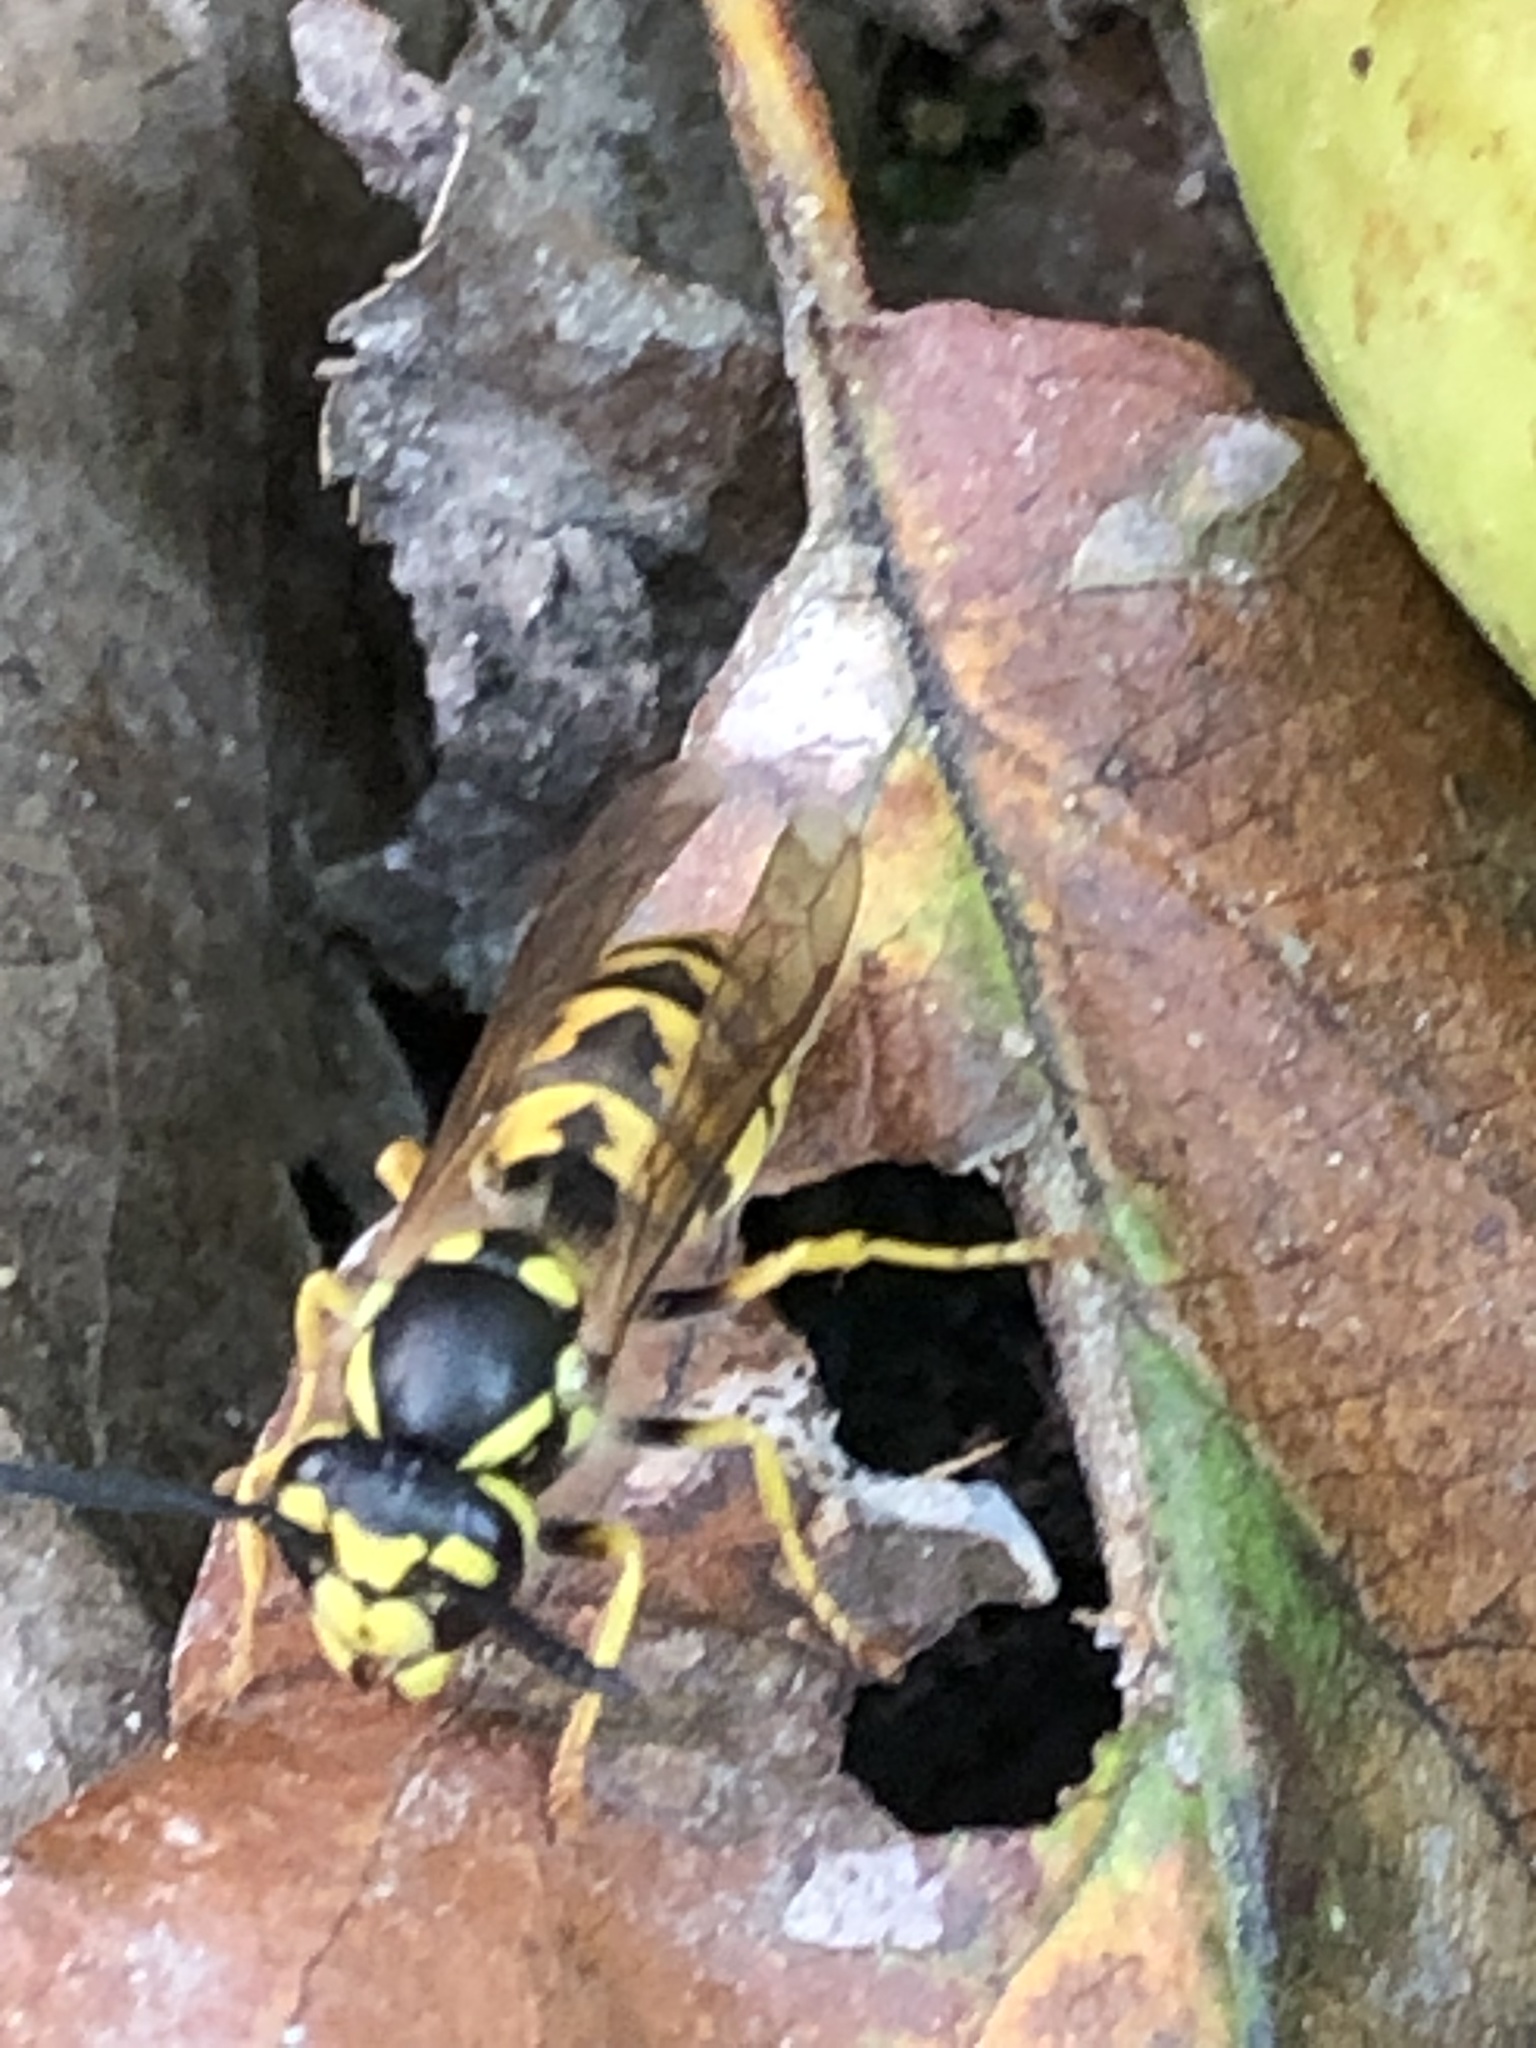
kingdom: Animalia
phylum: Arthropoda
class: Insecta
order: Hymenoptera
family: Vespidae
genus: Vespula
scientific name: Vespula germanica
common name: German wasp
